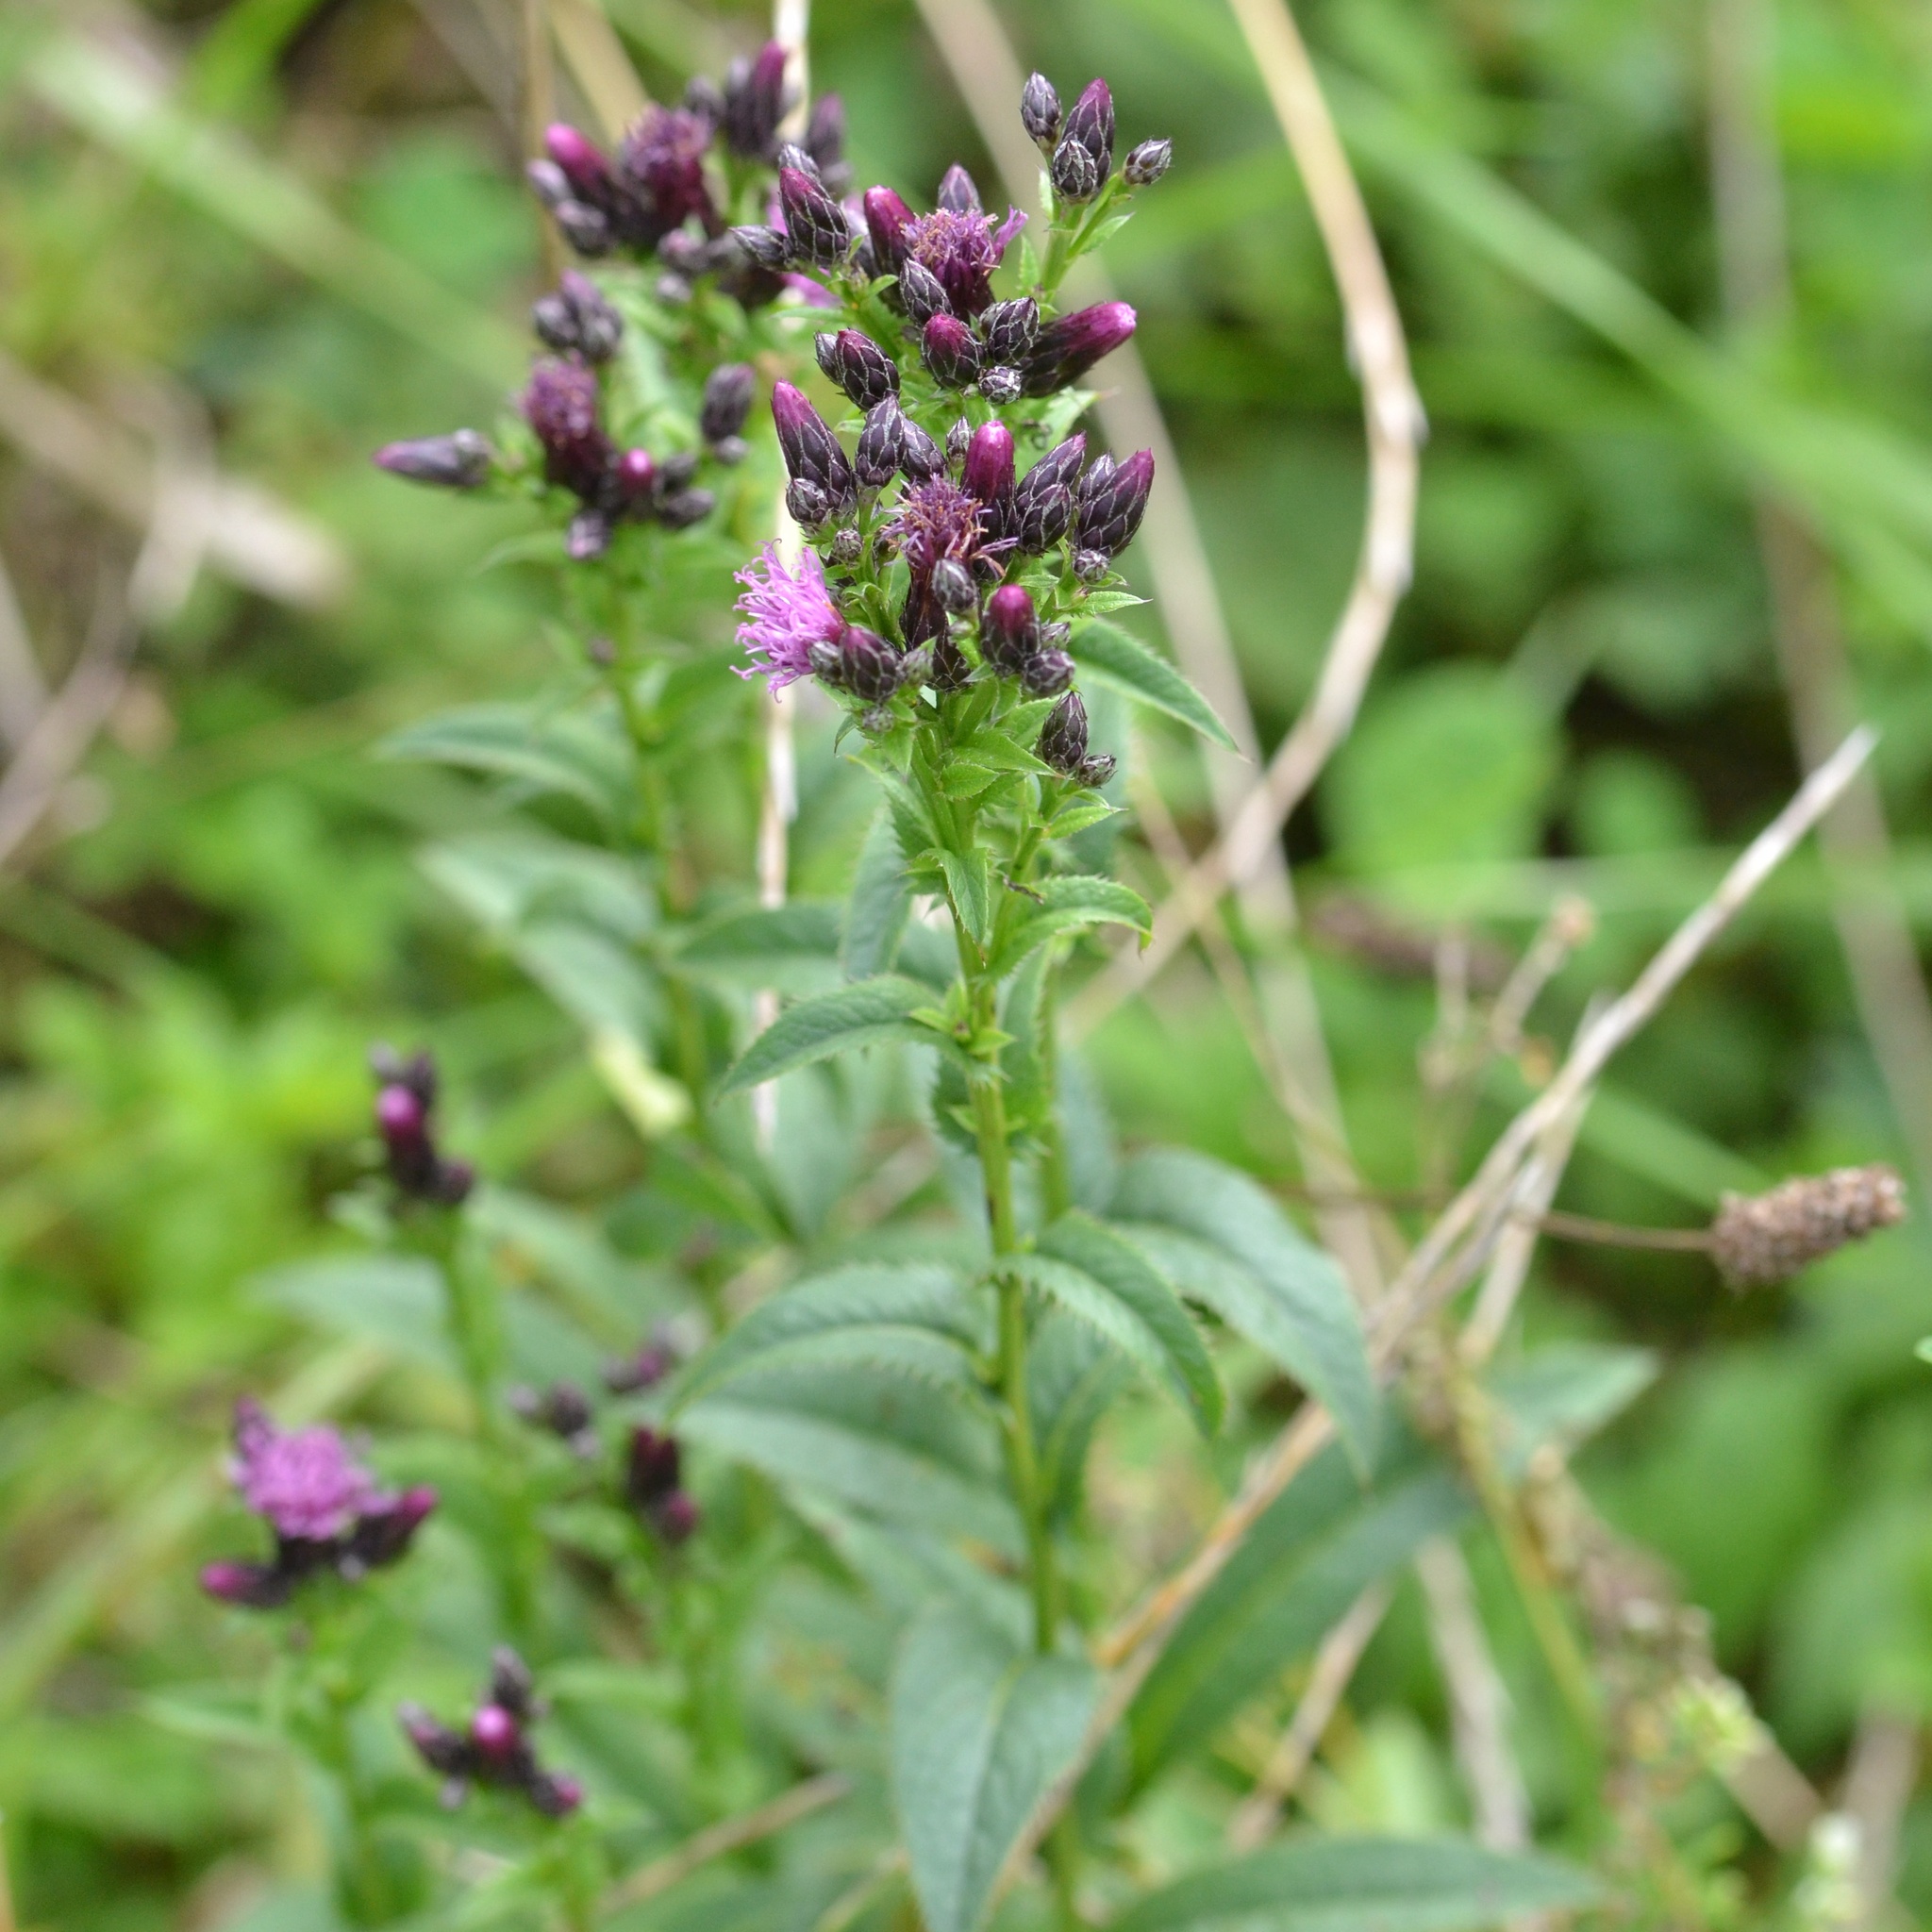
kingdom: Plantae
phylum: Tracheophyta
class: Magnoliopsida
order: Asterales
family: Asteraceae
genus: Serratula
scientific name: Serratula tinctoria
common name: Saw-wort
